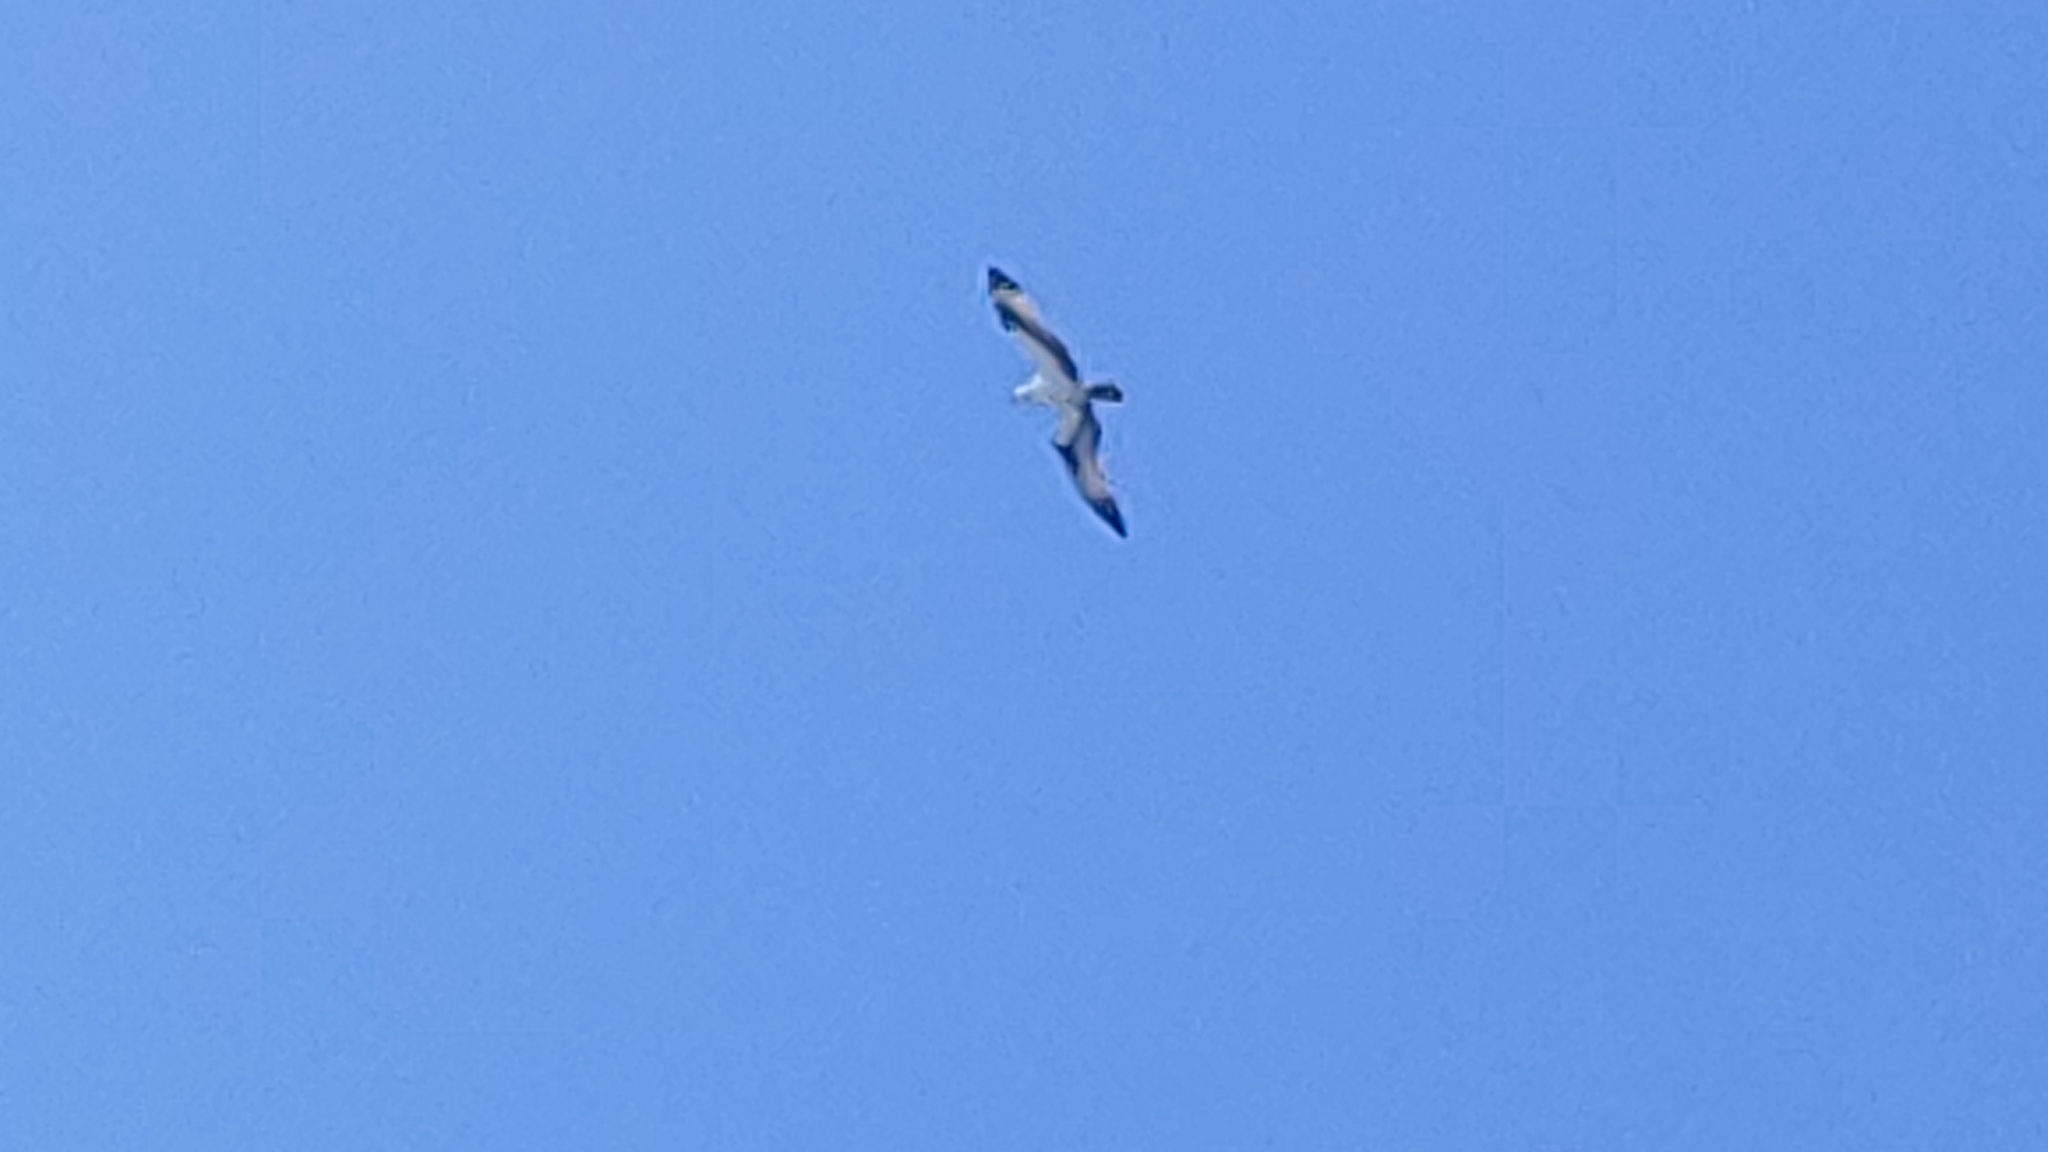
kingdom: Animalia
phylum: Chordata
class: Aves
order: Accipitriformes
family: Pandionidae
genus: Pandion
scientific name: Pandion haliaetus
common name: Osprey
